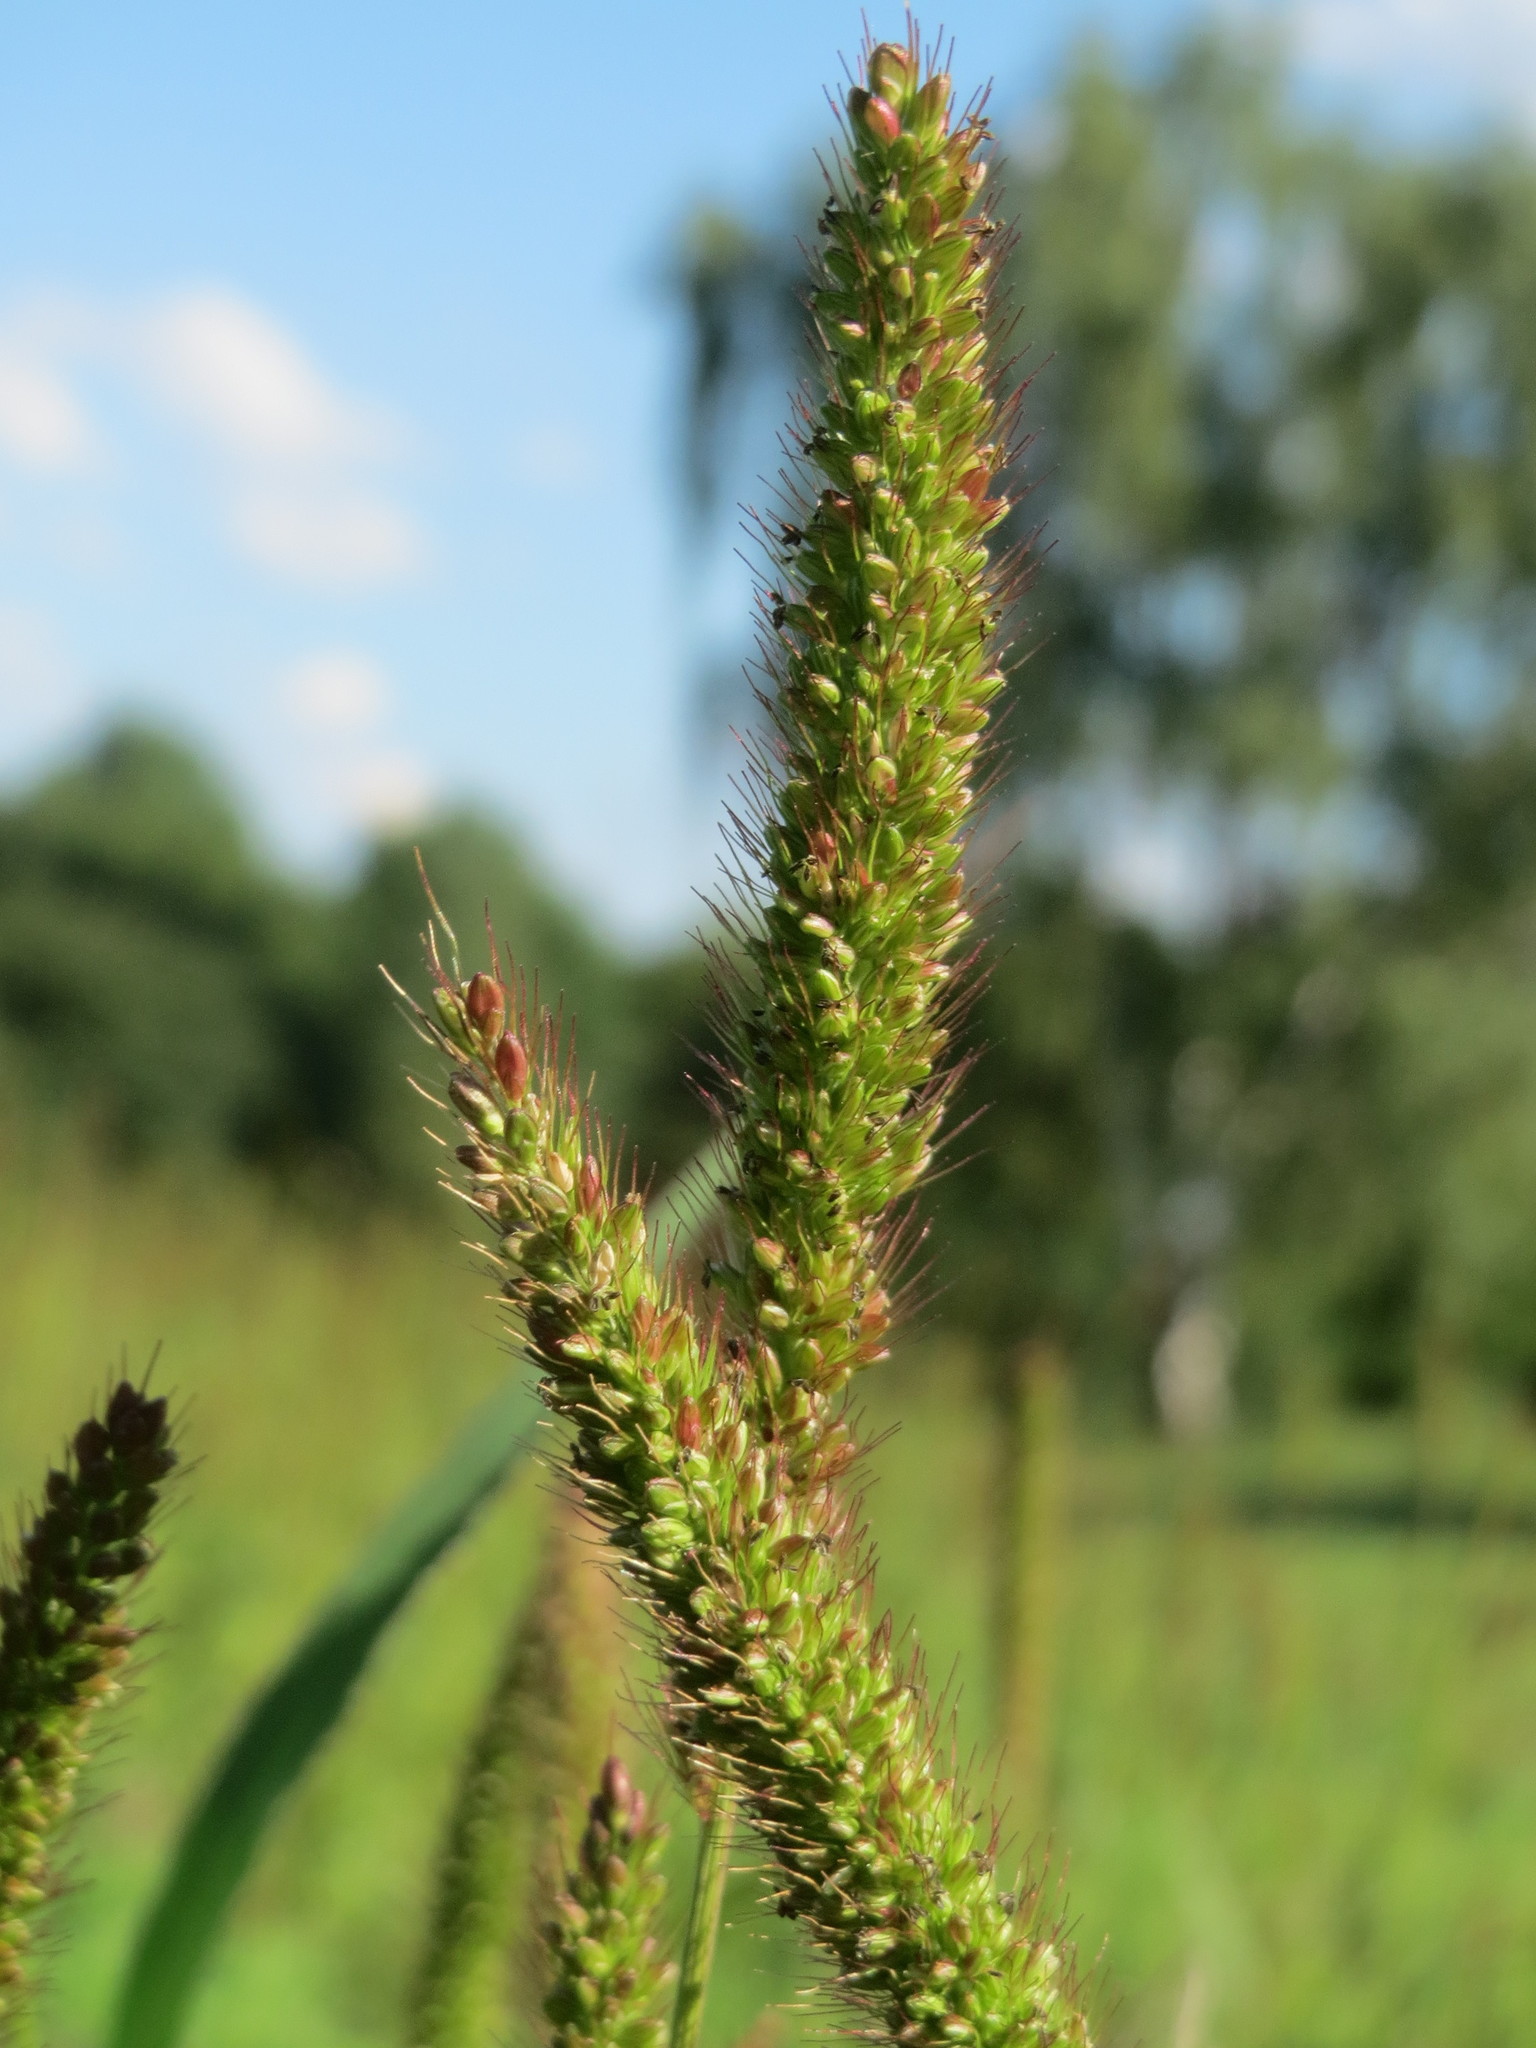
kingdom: Plantae
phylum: Tracheophyta
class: Liliopsida
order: Poales
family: Poaceae
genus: Setaria
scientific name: Setaria verticillata
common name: Hooked bristlegrass
